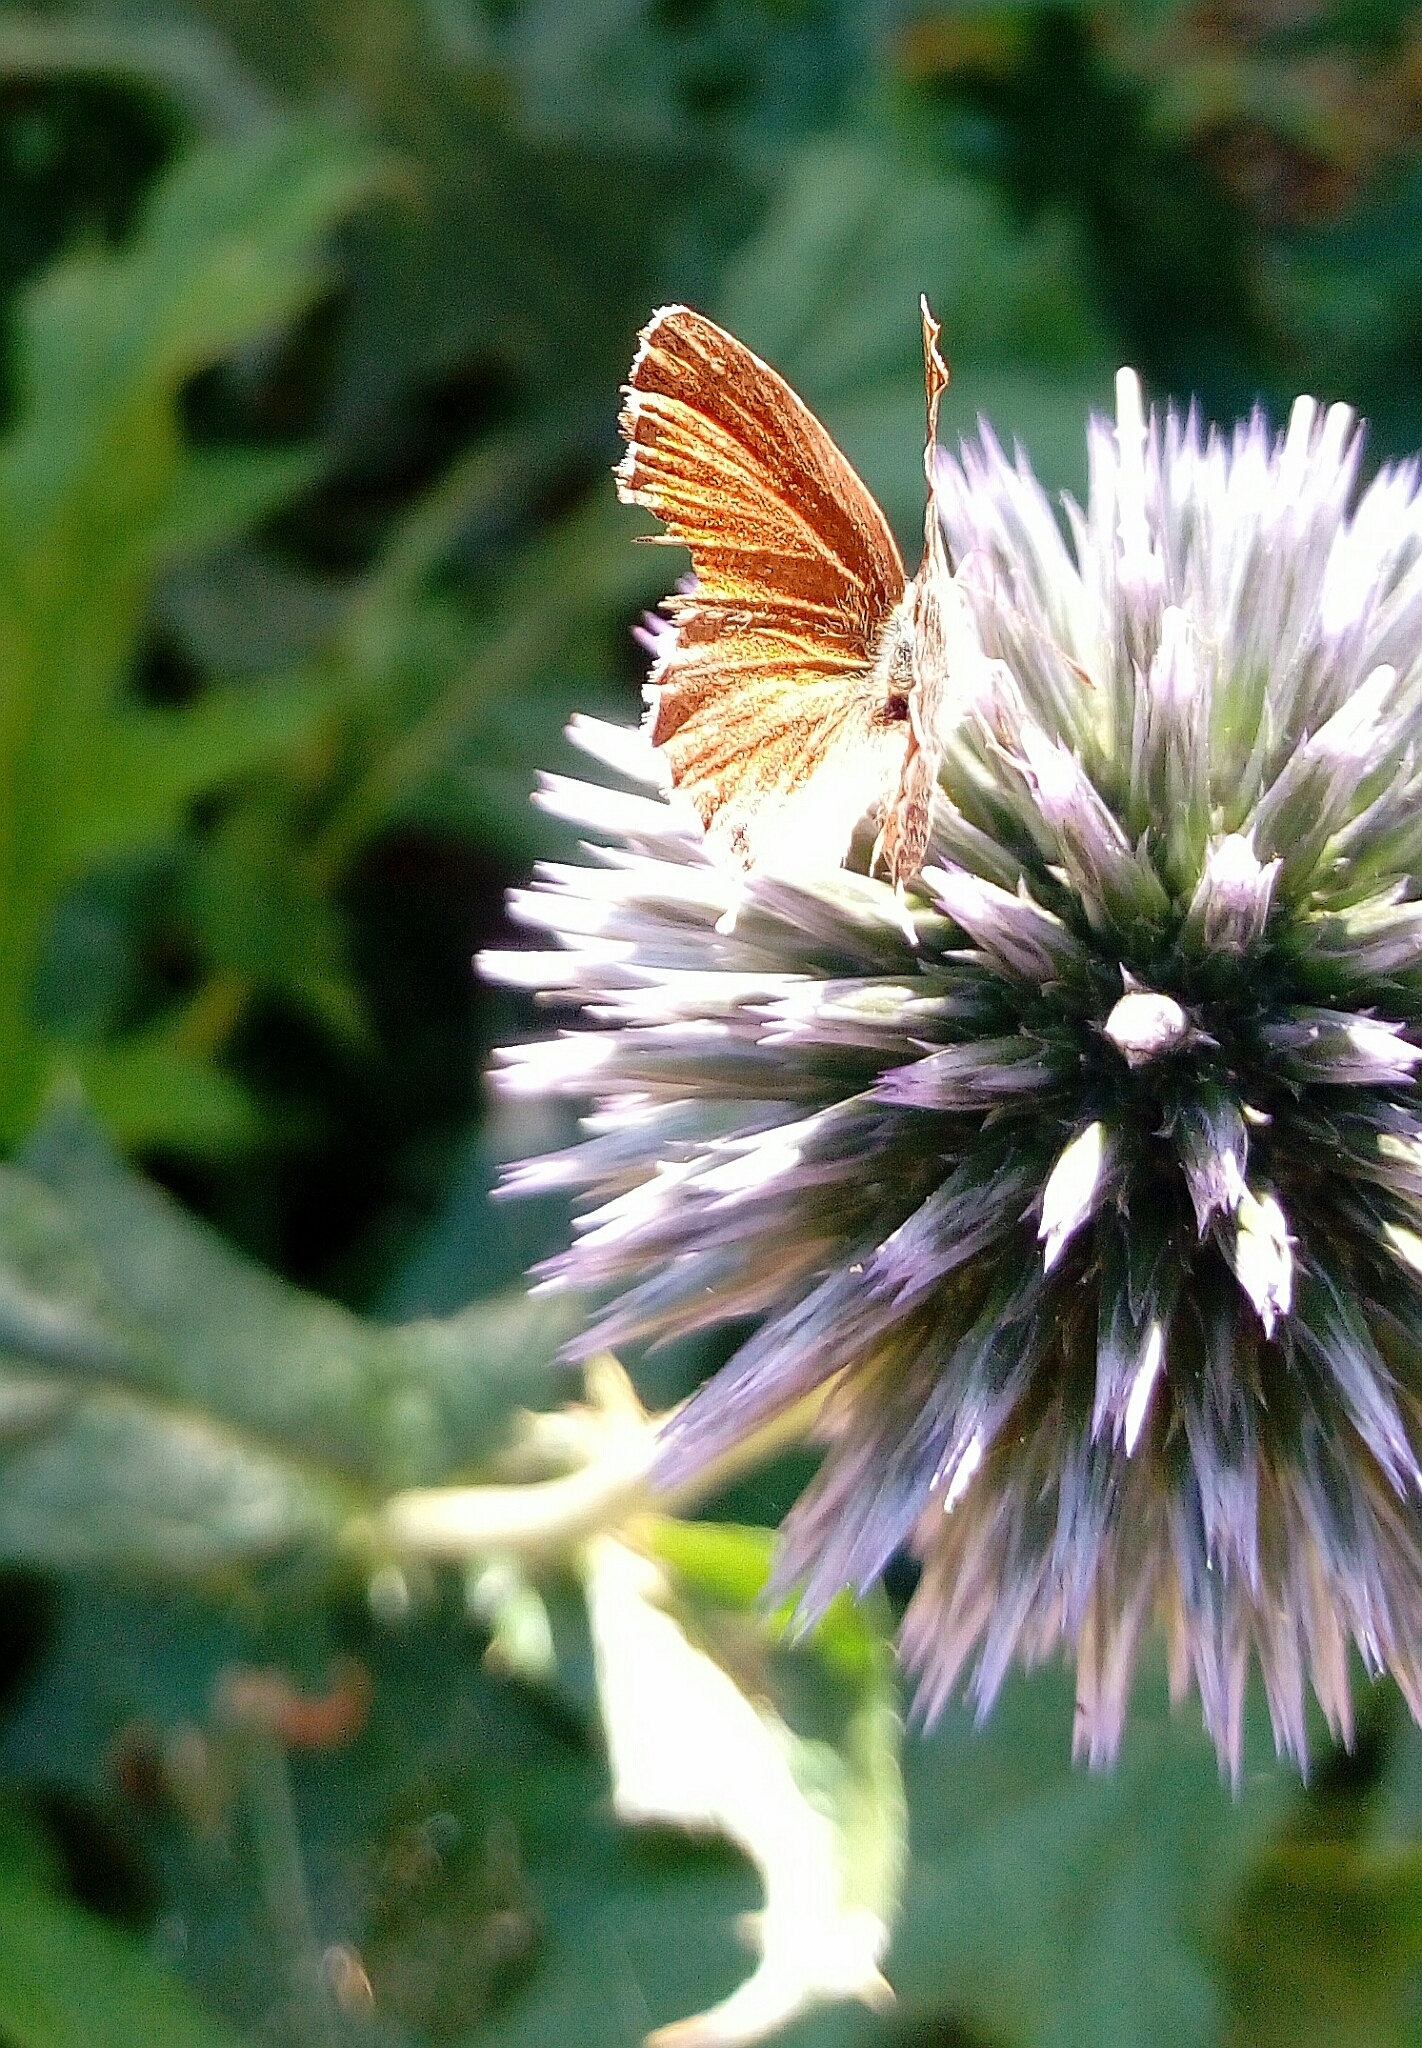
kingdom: Animalia
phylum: Arthropoda
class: Insecta
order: Lepidoptera
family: Lycaenidae
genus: Cacyreus
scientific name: Cacyreus marshalli
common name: Geranium bronze
